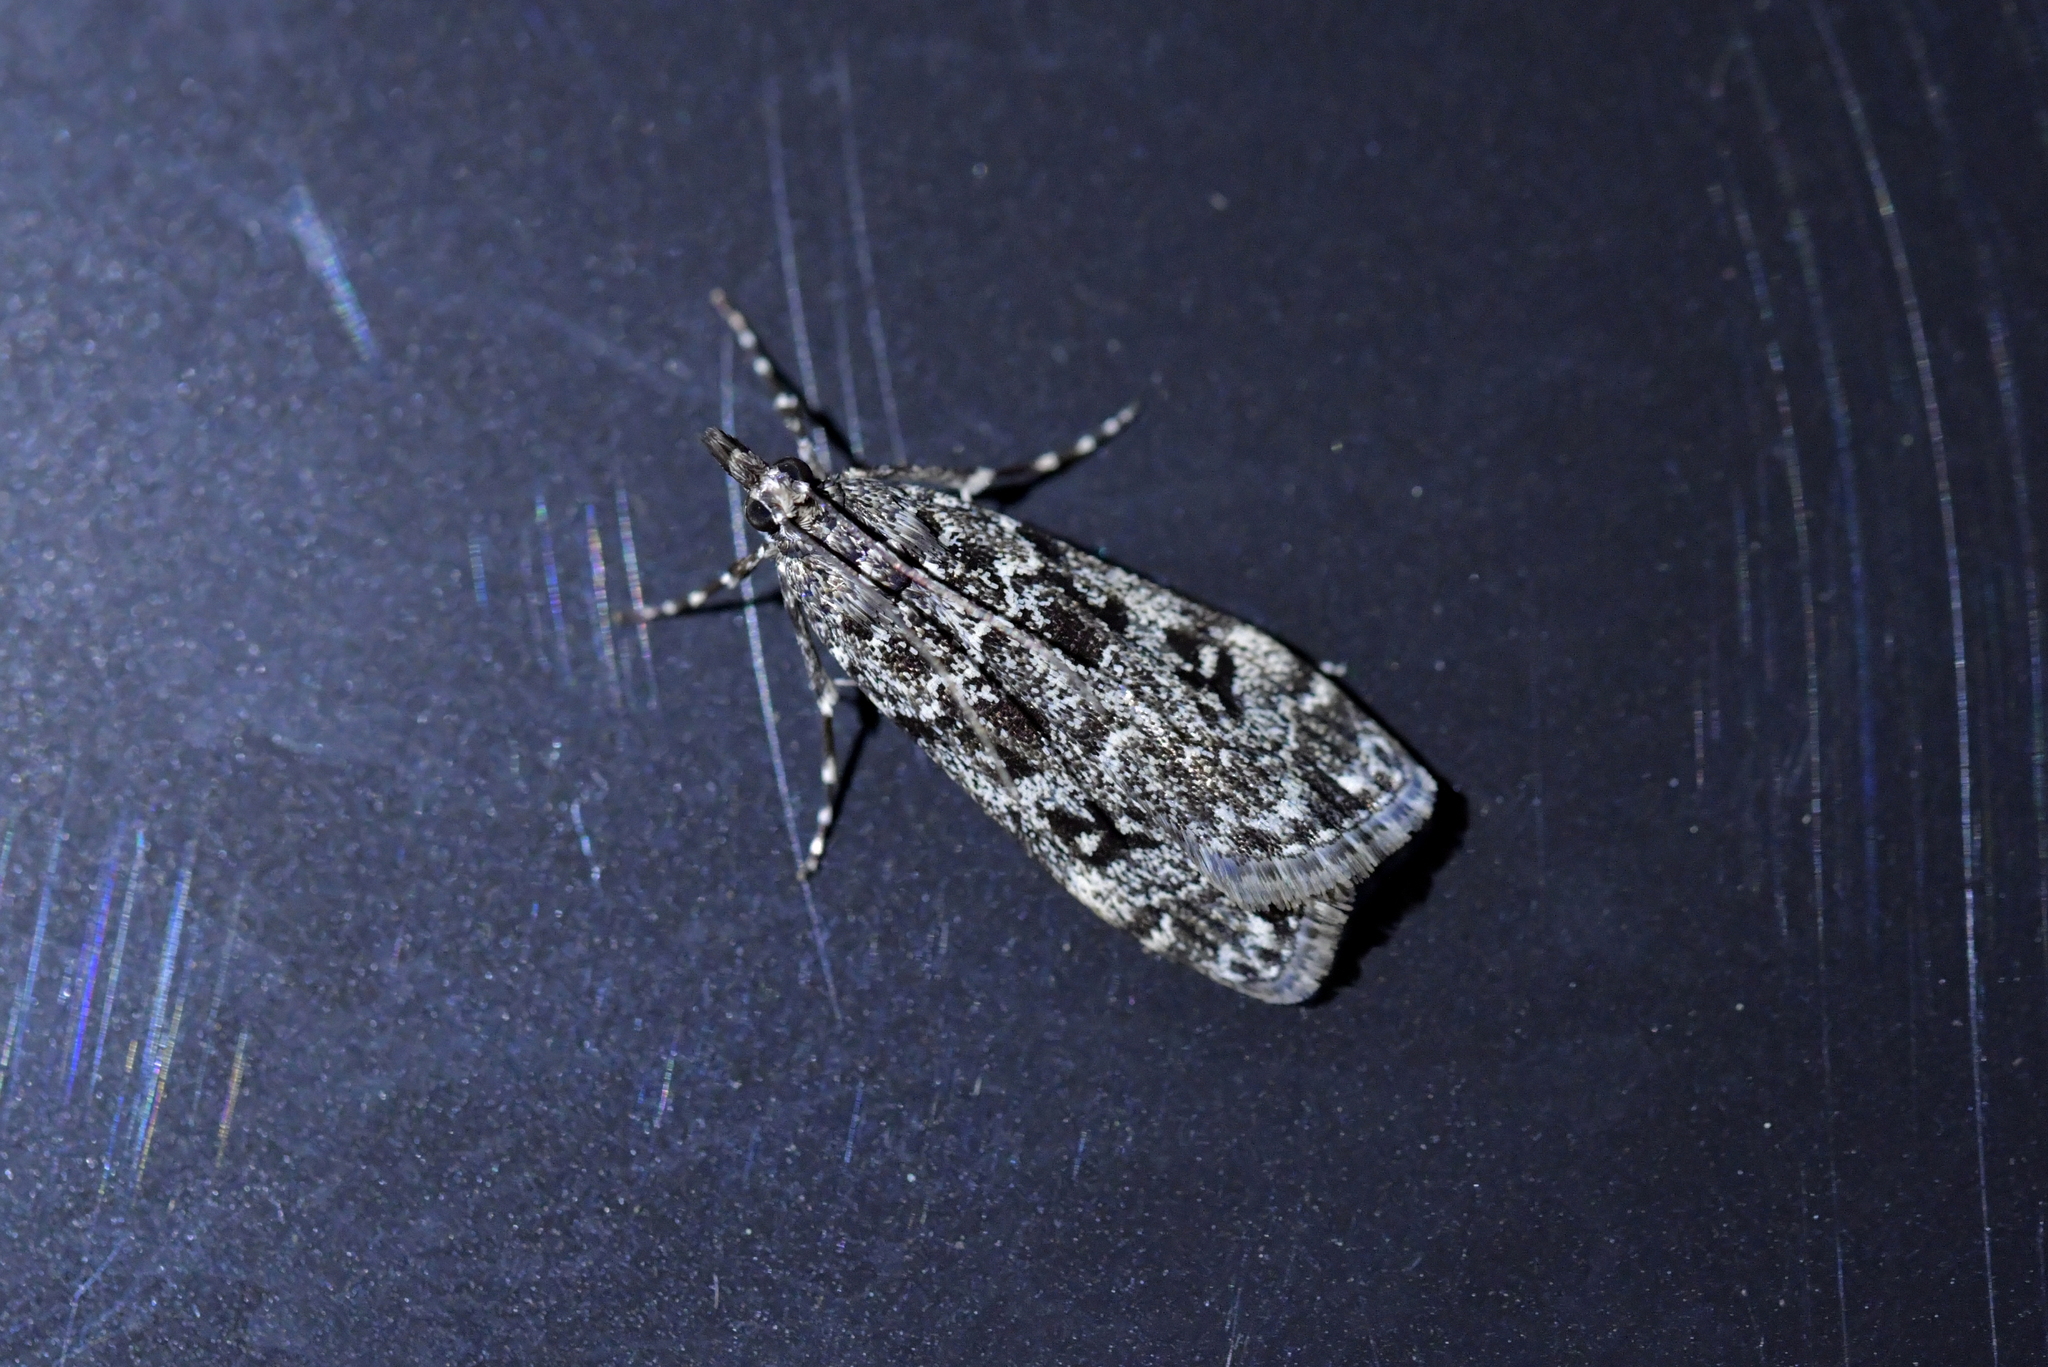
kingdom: Animalia
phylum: Arthropoda
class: Insecta
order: Lepidoptera
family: Crambidae
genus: Eudonia
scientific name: Eudonia philerga
